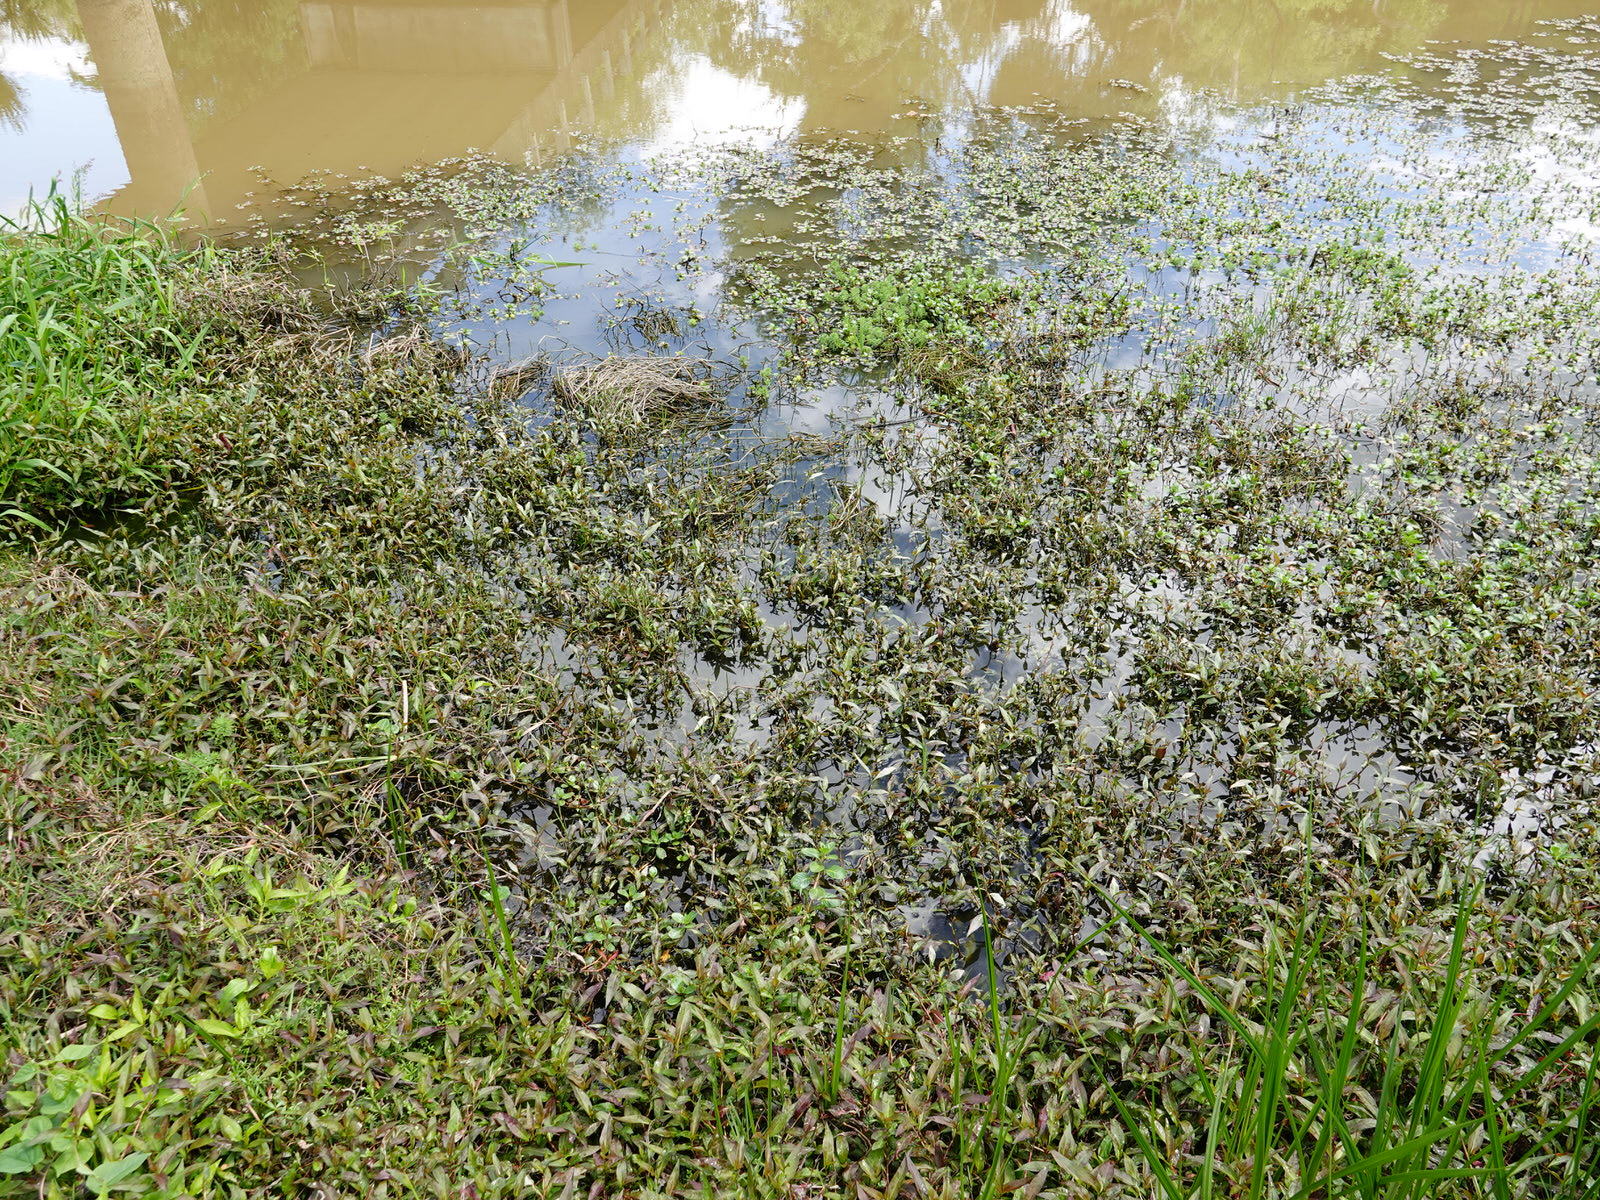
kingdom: Plantae
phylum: Tracheophyta
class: Magnoliopsida
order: Myrtales
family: Onagraceae
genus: Ludwigia
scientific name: Ludwigia peploides
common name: Floating primrose-willow
